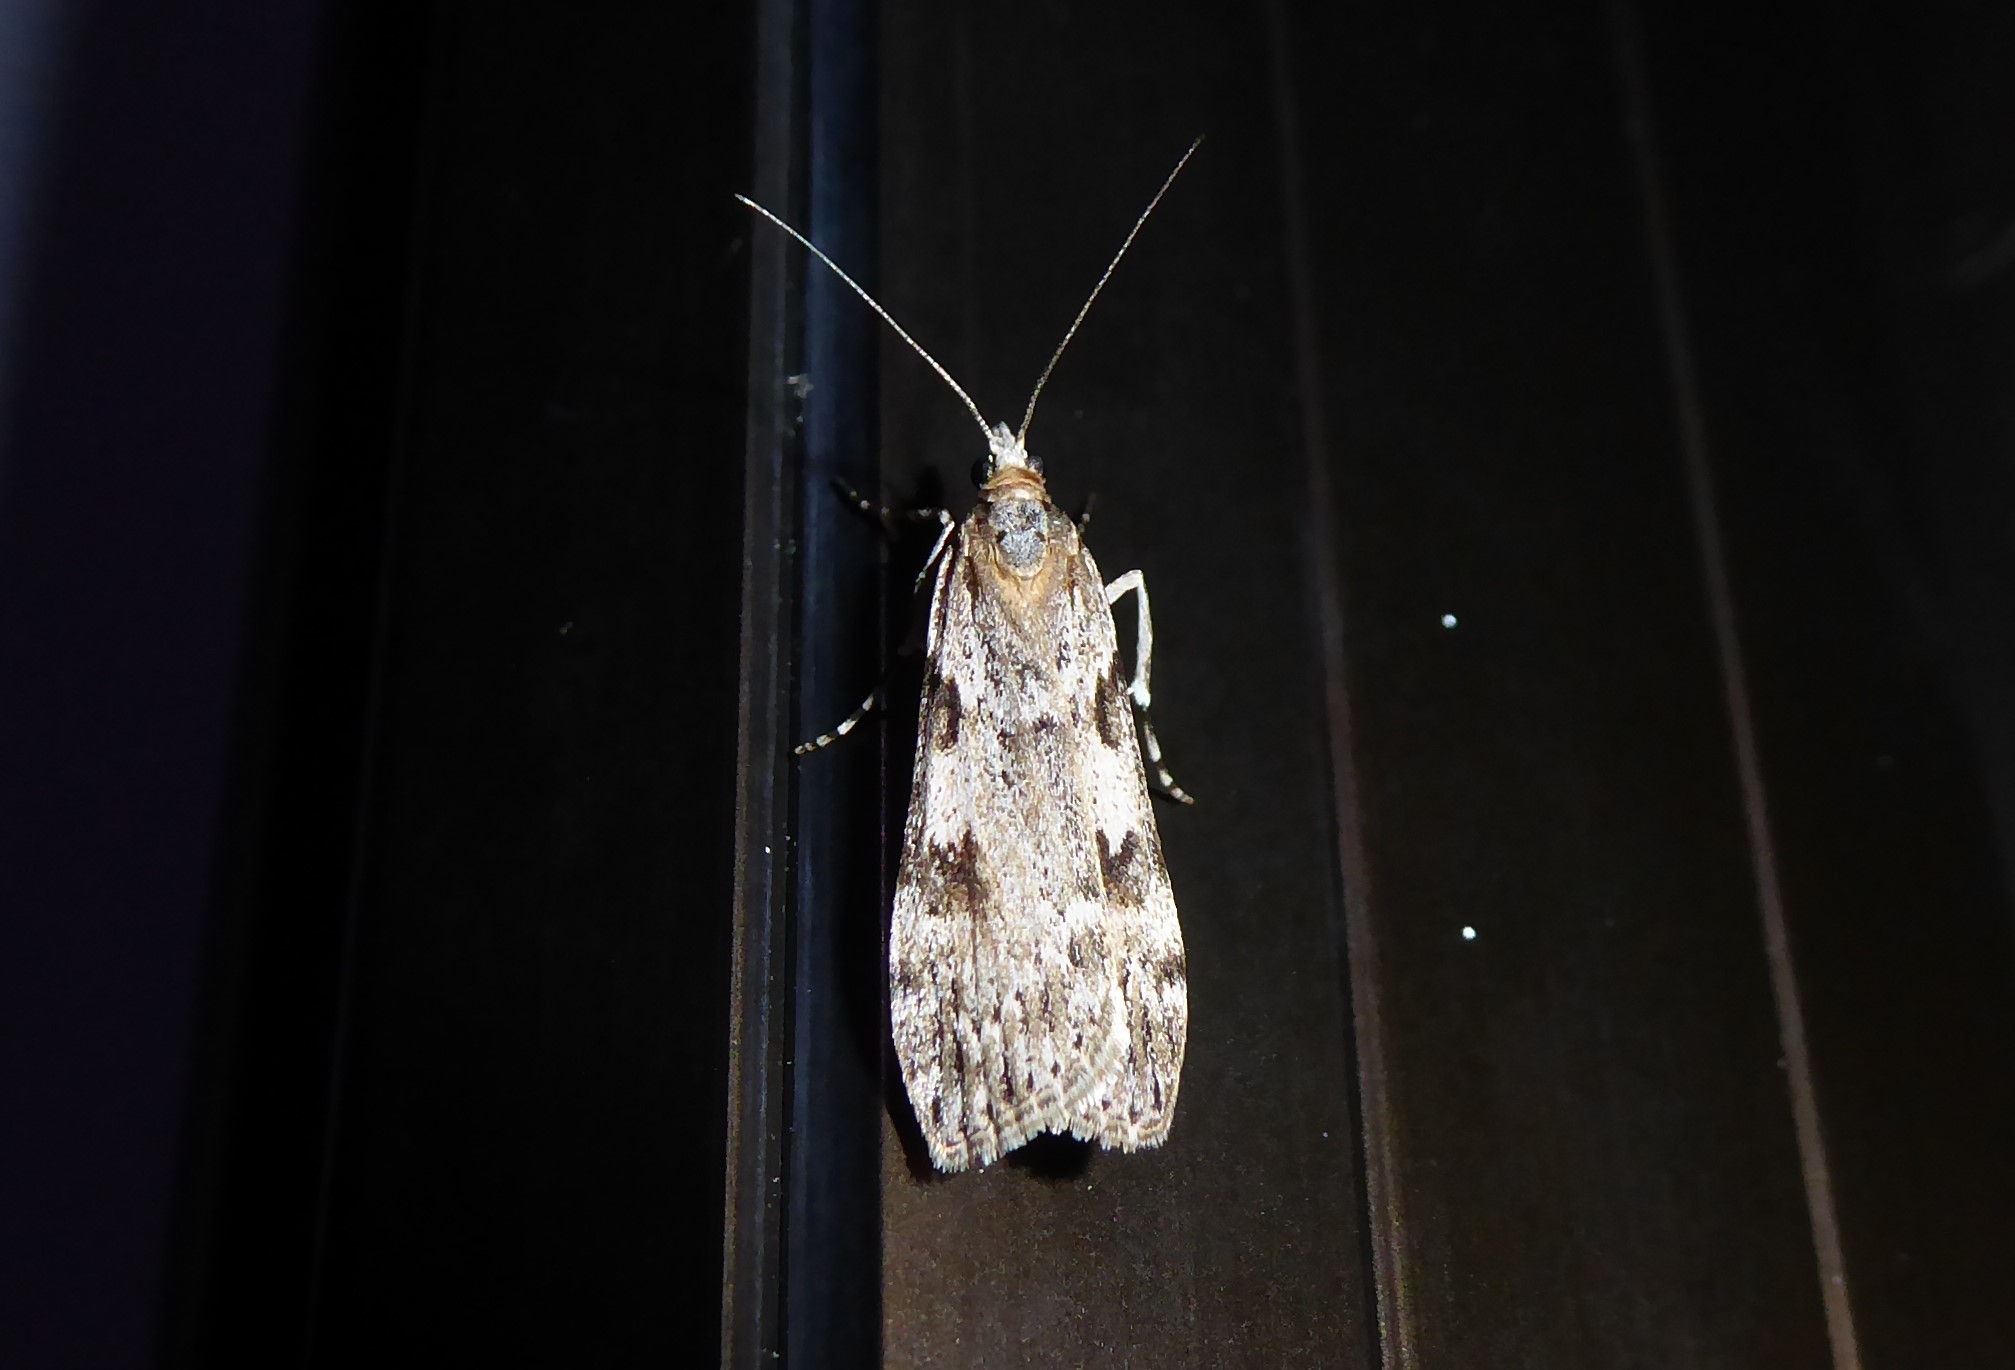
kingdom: Animalia
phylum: Arthropoda
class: Insecta
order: Lepidoptera
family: Crambidae
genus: Scoparia
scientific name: Scoparia halopis
